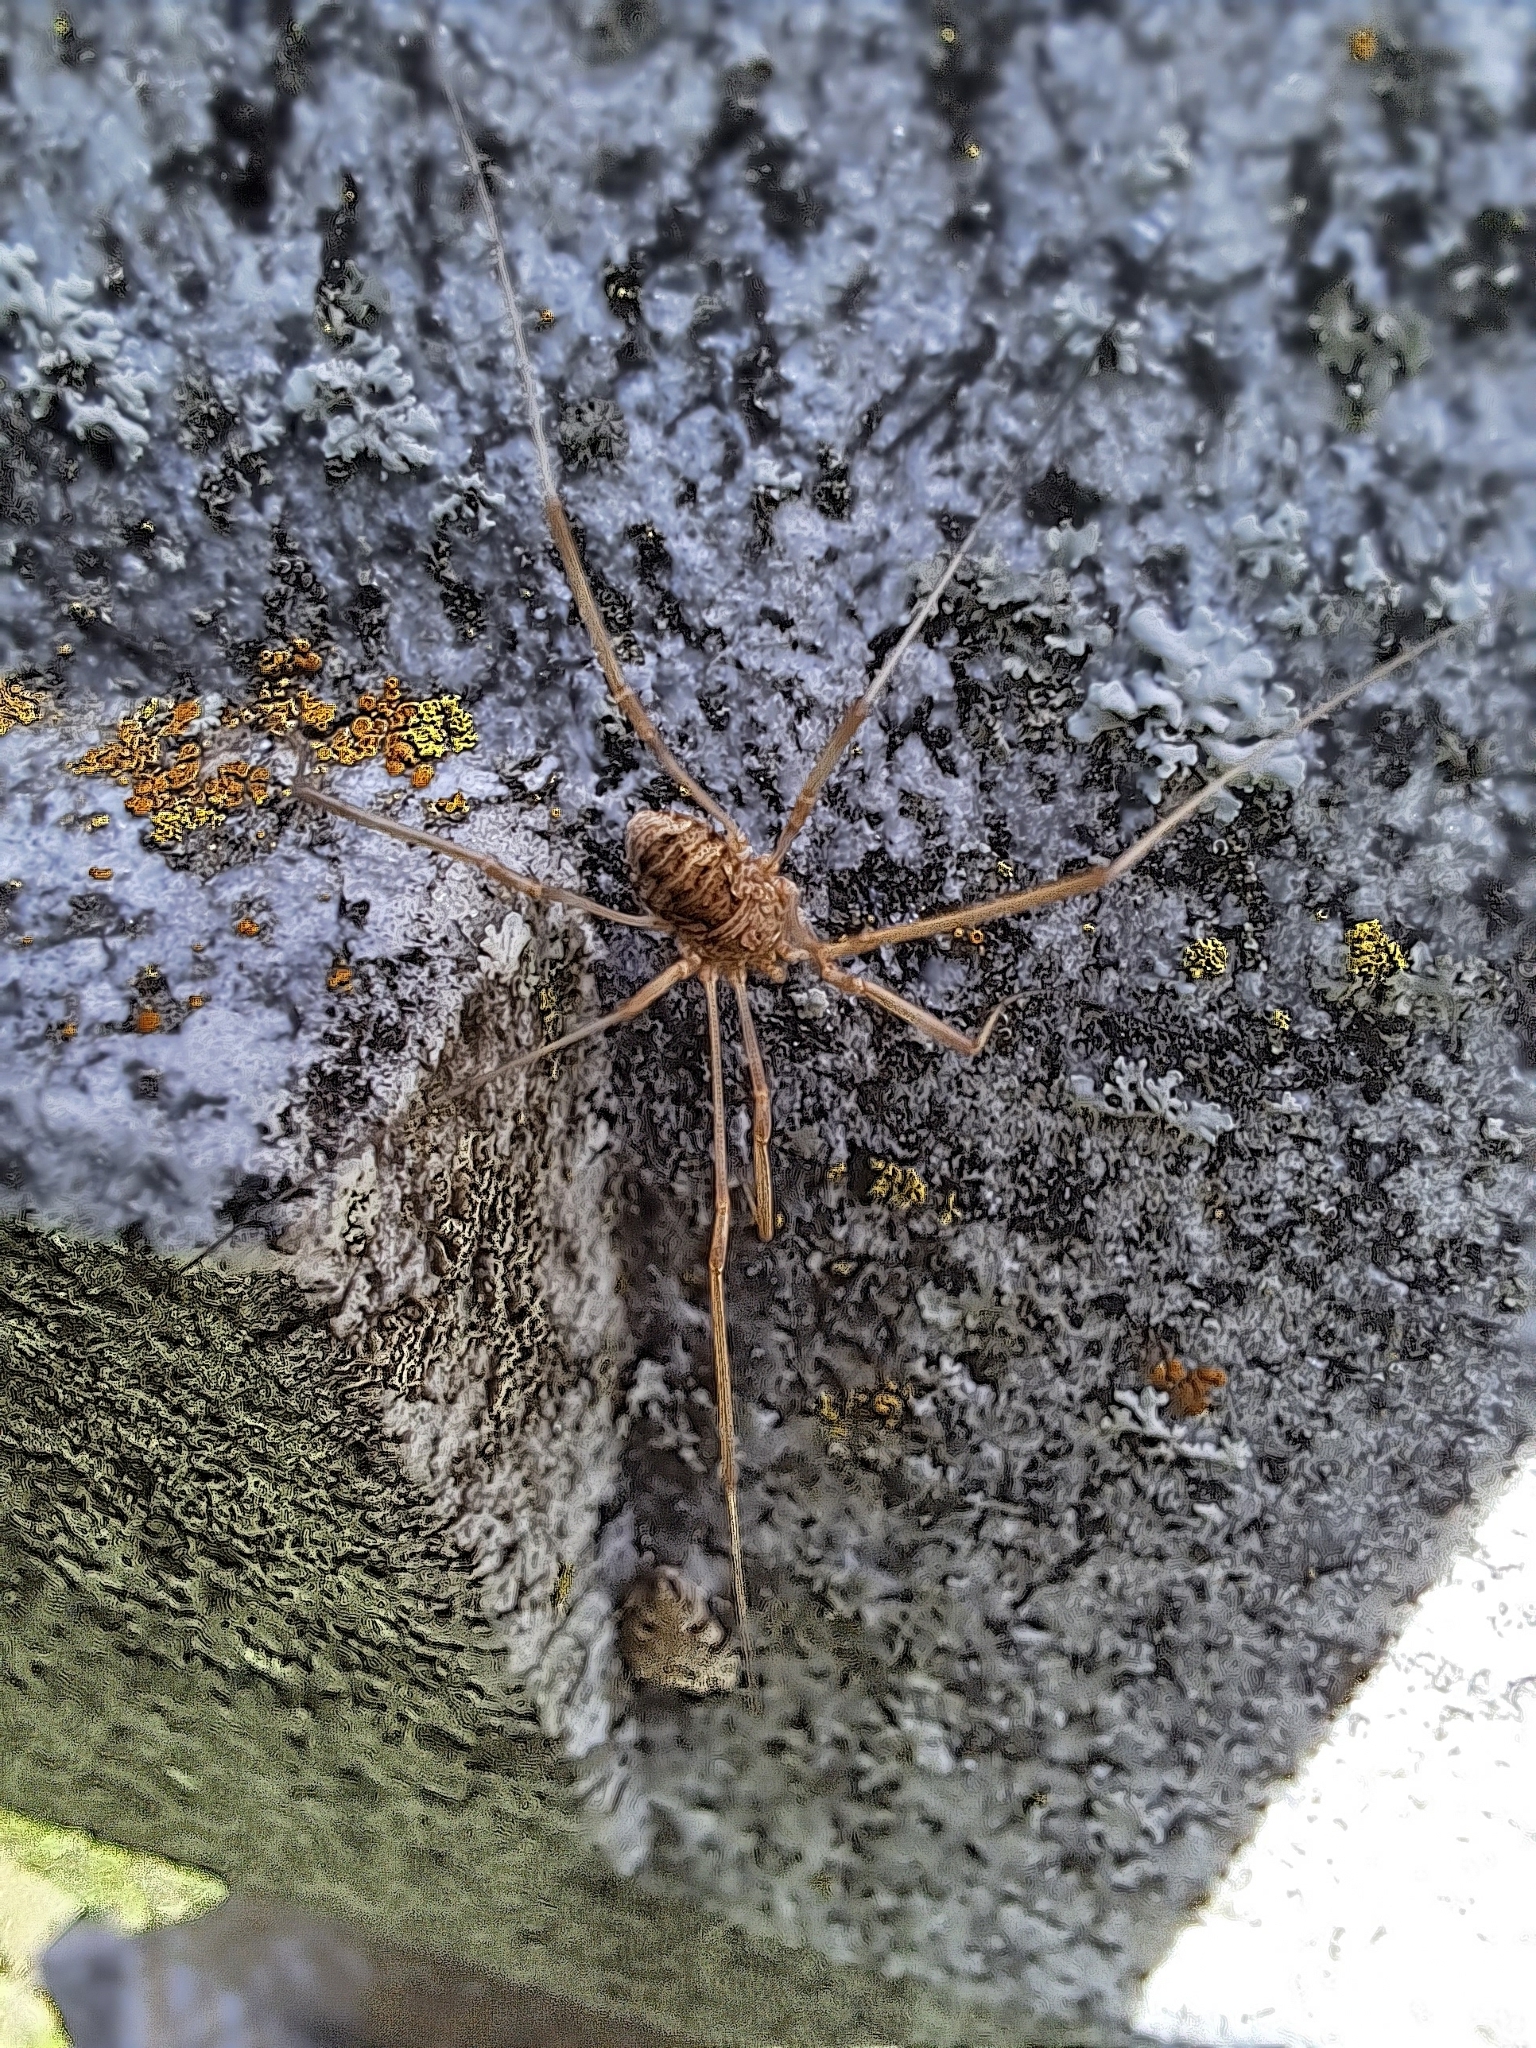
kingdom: Animalia
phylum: Arthropoda
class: Arachnida
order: Opiliones
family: Phalangiidae
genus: Phalangium
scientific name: Phalangium opilio
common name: Daddy longleg
